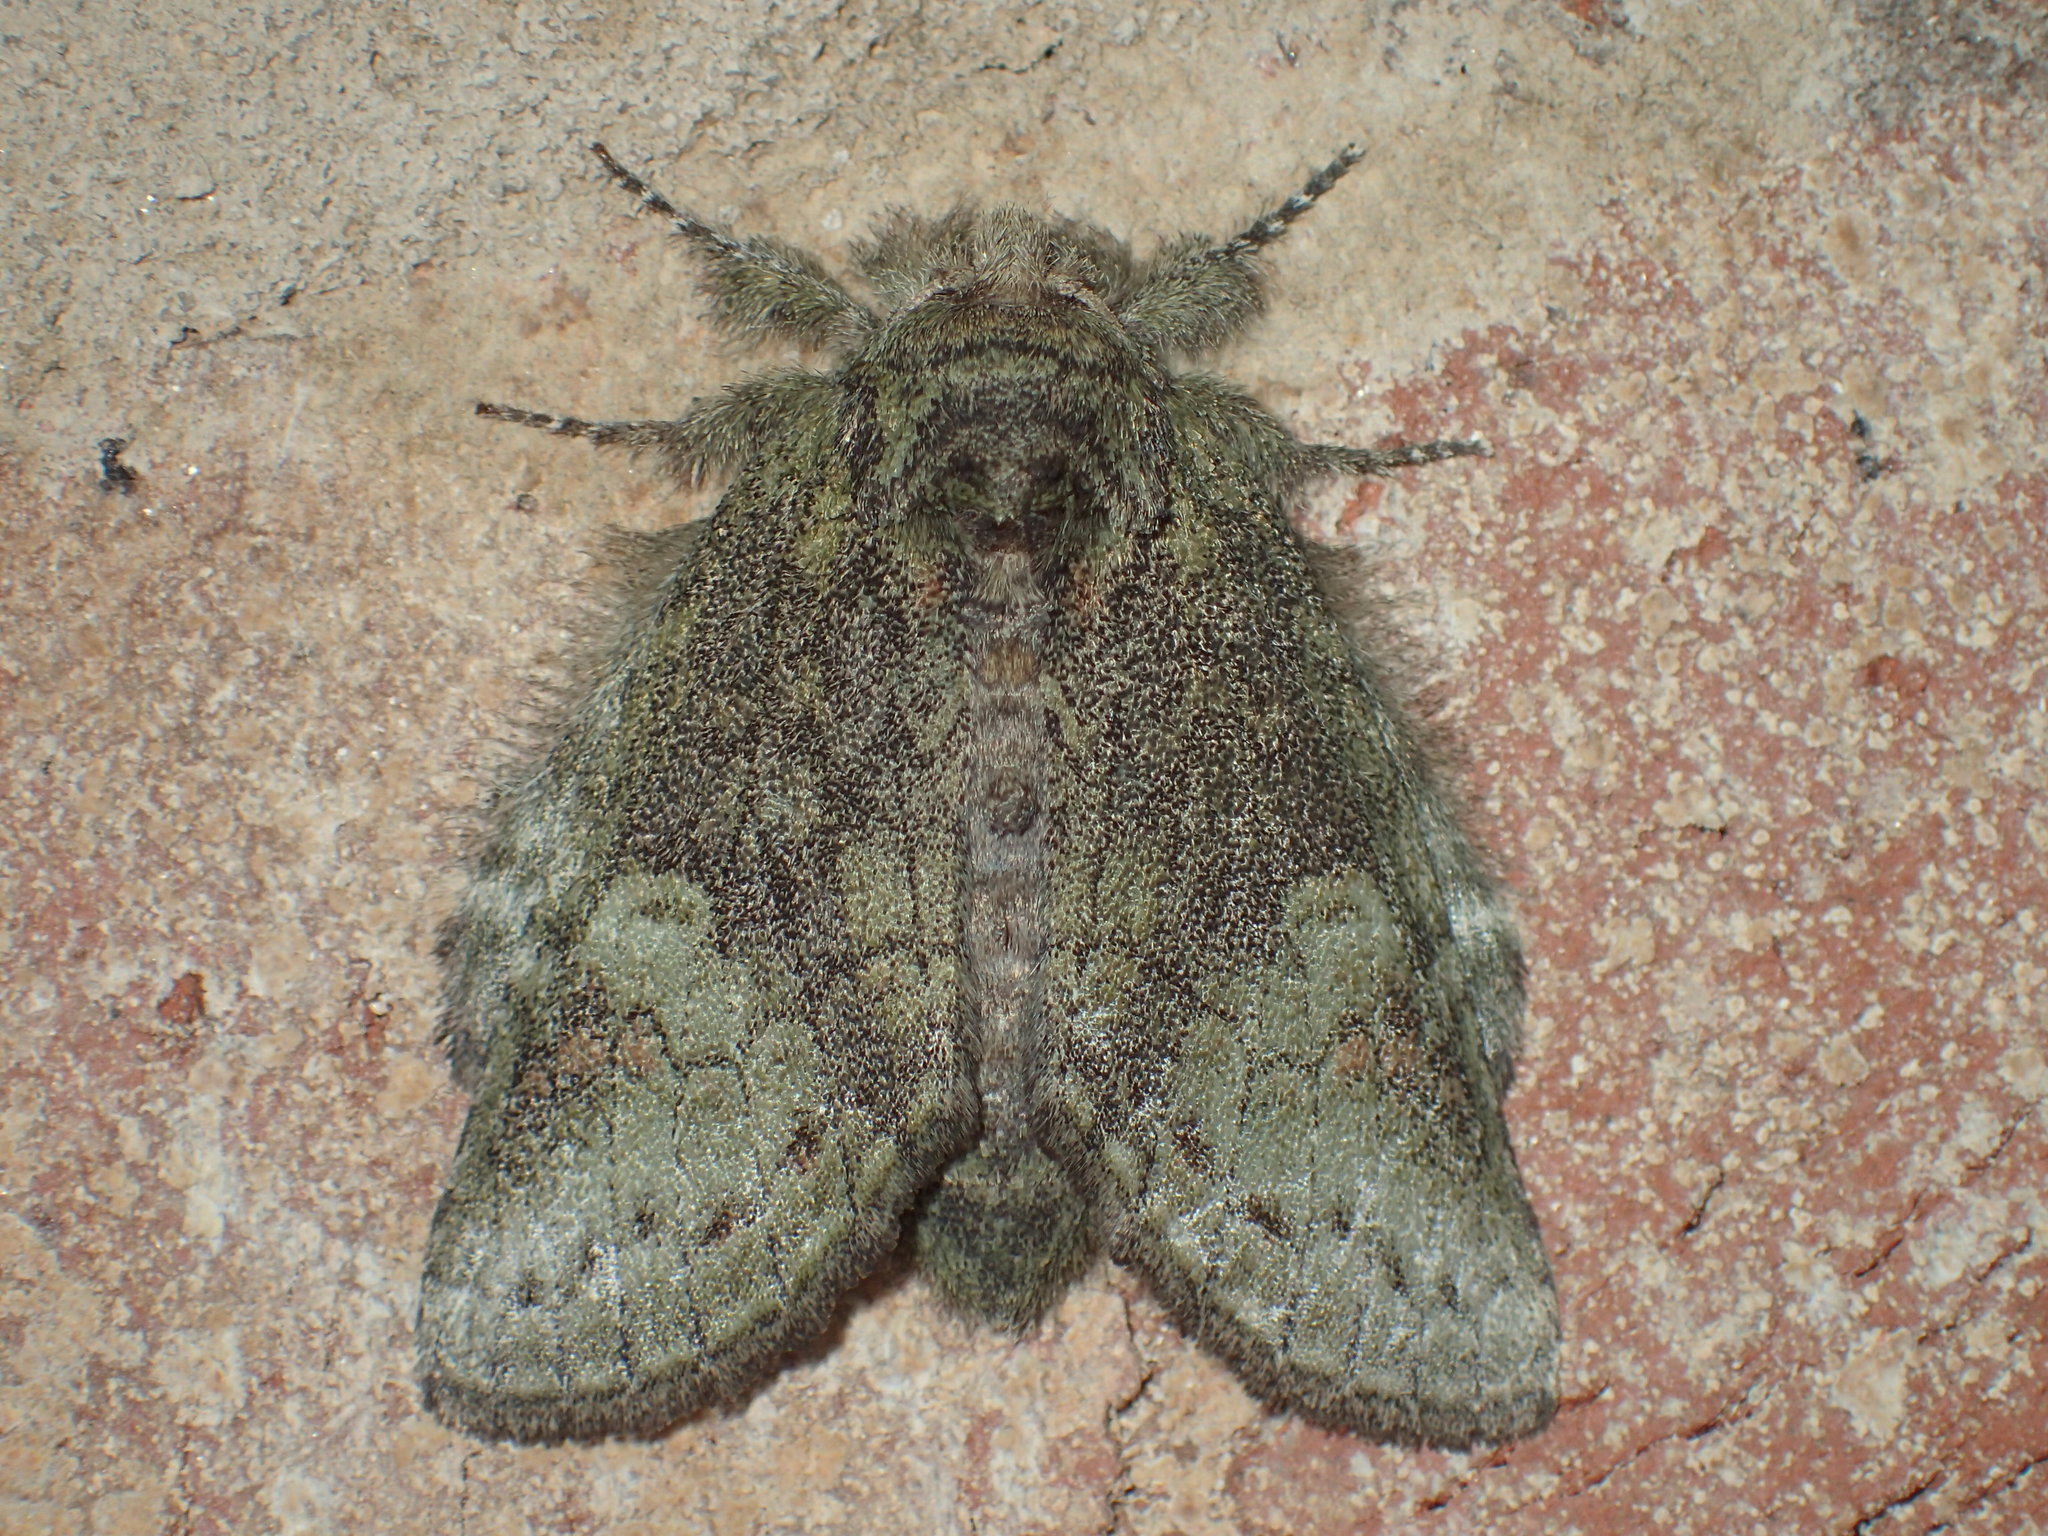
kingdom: Animalia
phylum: Arthropoda
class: Insecta
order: Lepidoptera
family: Notodontidae
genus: Heterocampa
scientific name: Heterocampa
